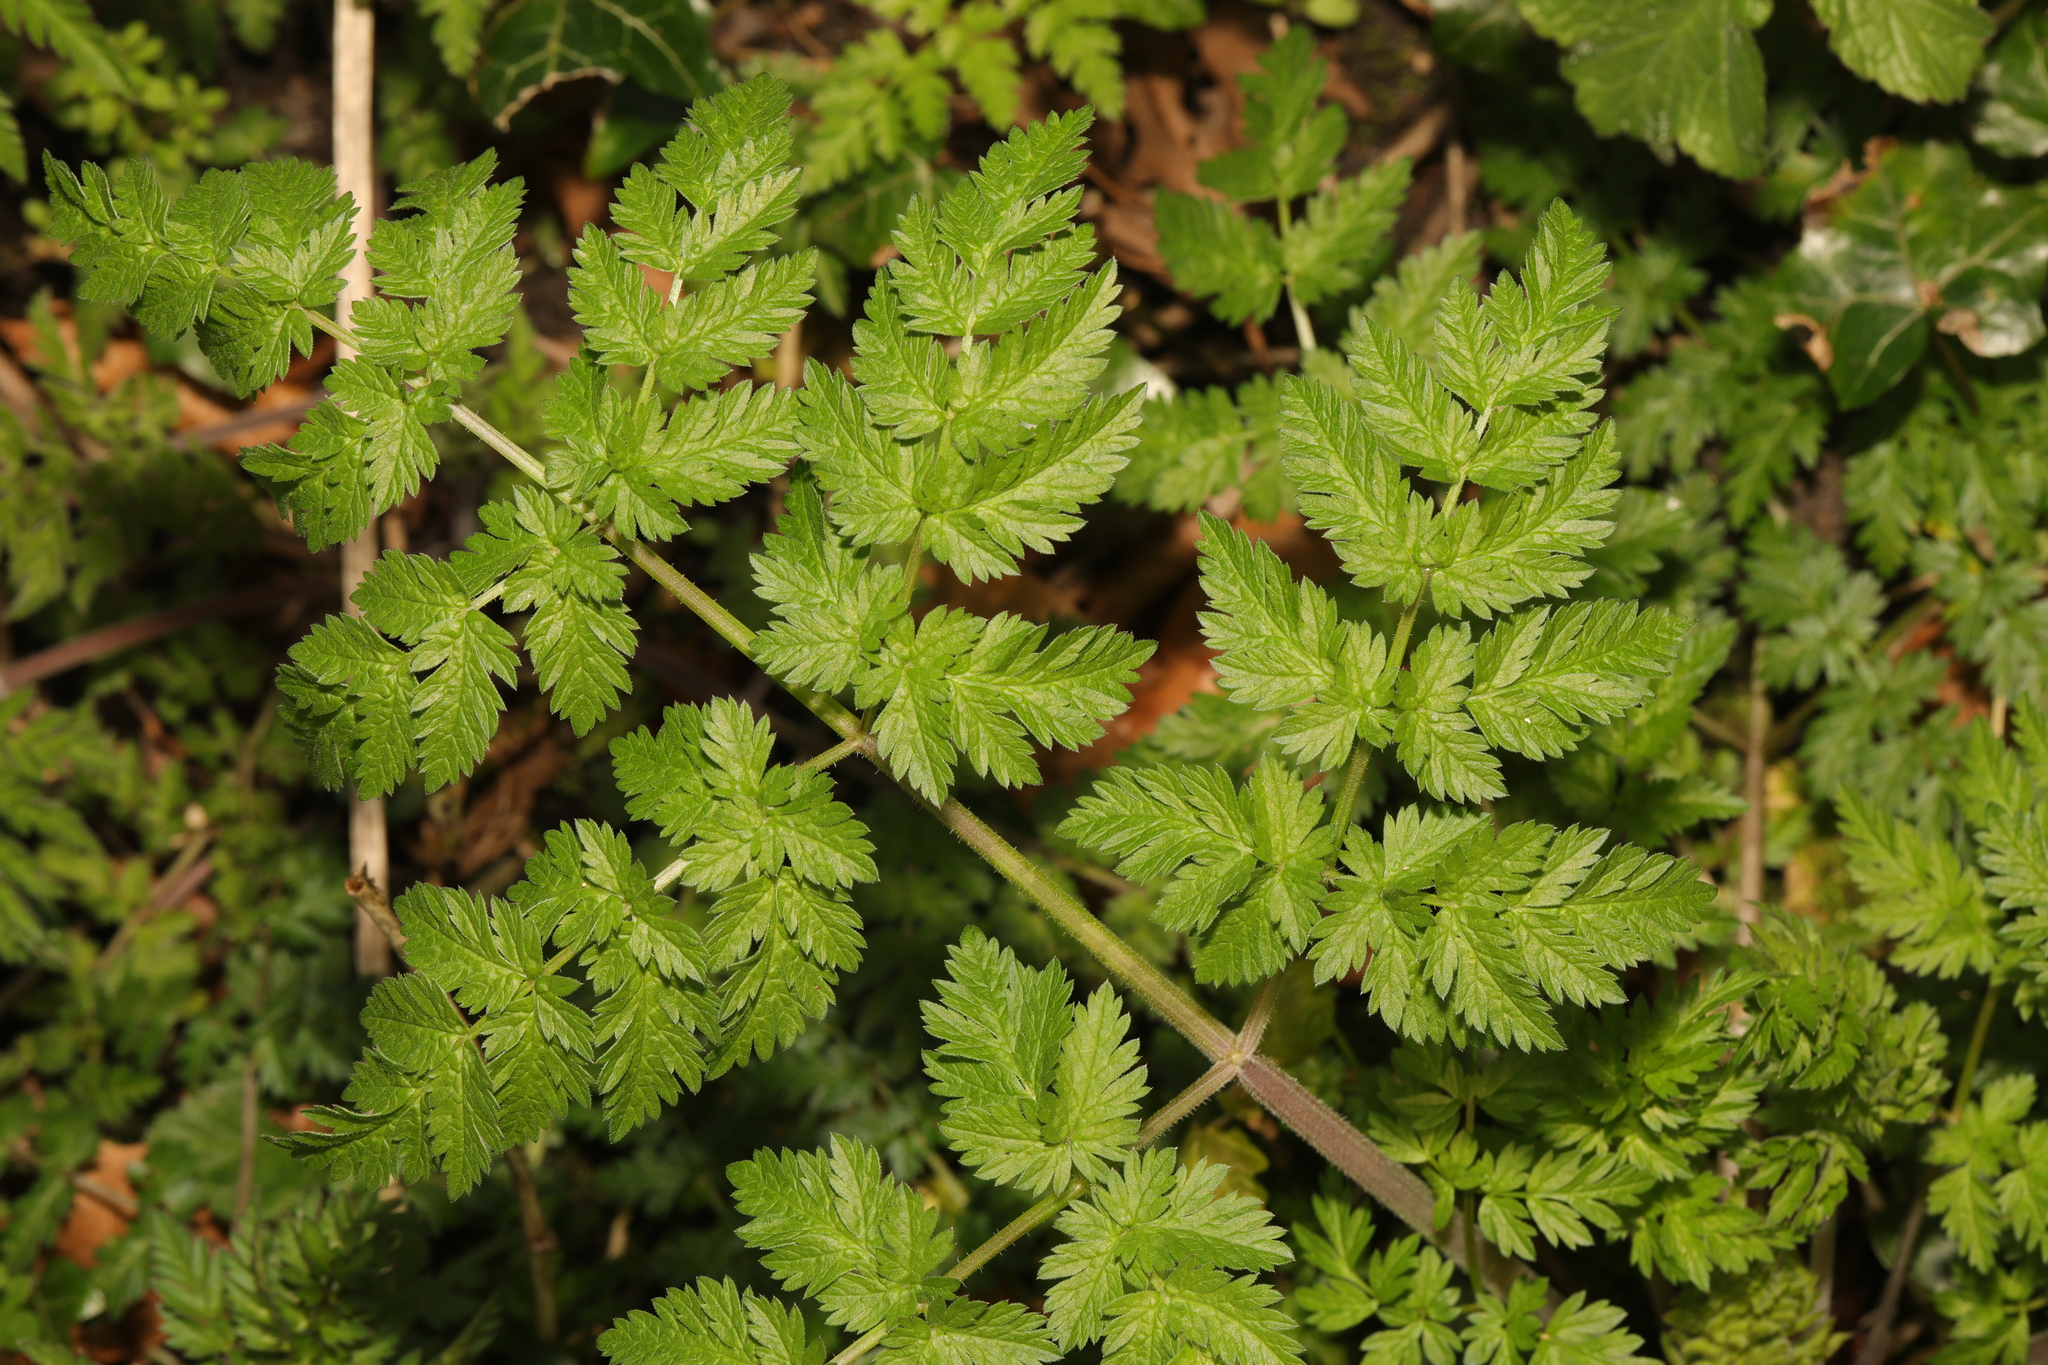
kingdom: Plantae
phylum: Tracheophyta
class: Magnoliopsida
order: Apiales
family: Apiaceae
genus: Anthriscus
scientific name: Anthriscus sylvestris
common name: Cow parsley
